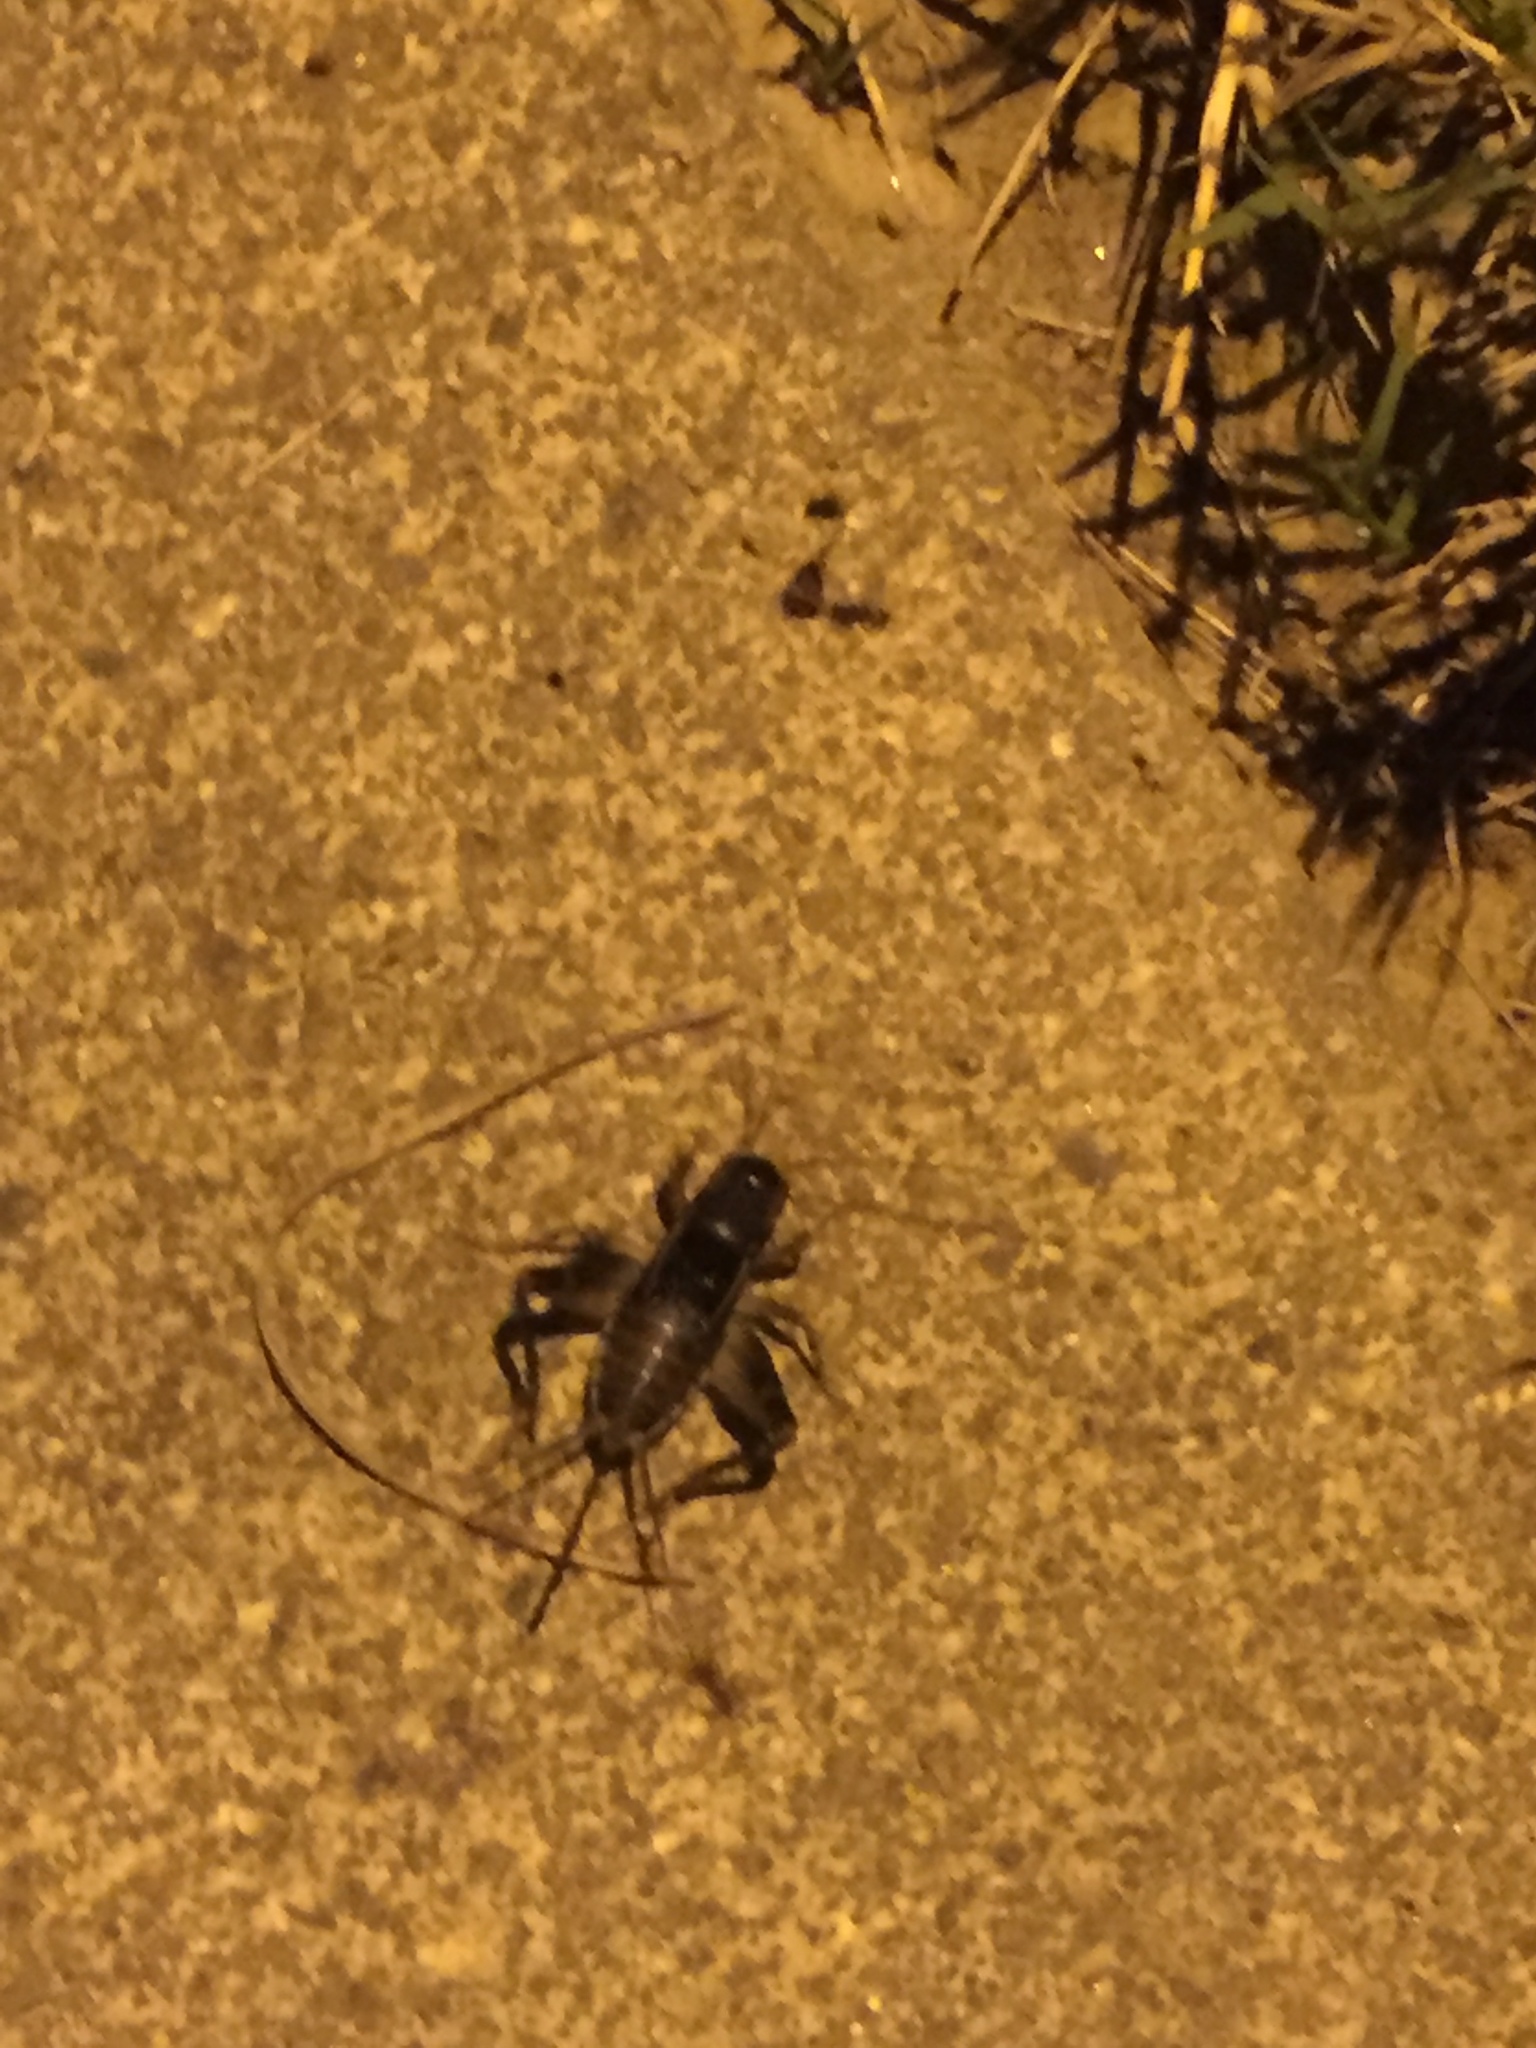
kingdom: Animalia
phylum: Arthropoda
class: Insecta
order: Orthoptera
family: Gryllidae
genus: Velarifictorus
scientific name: Velarifictorus micado
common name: Japanese burrowing cricket
